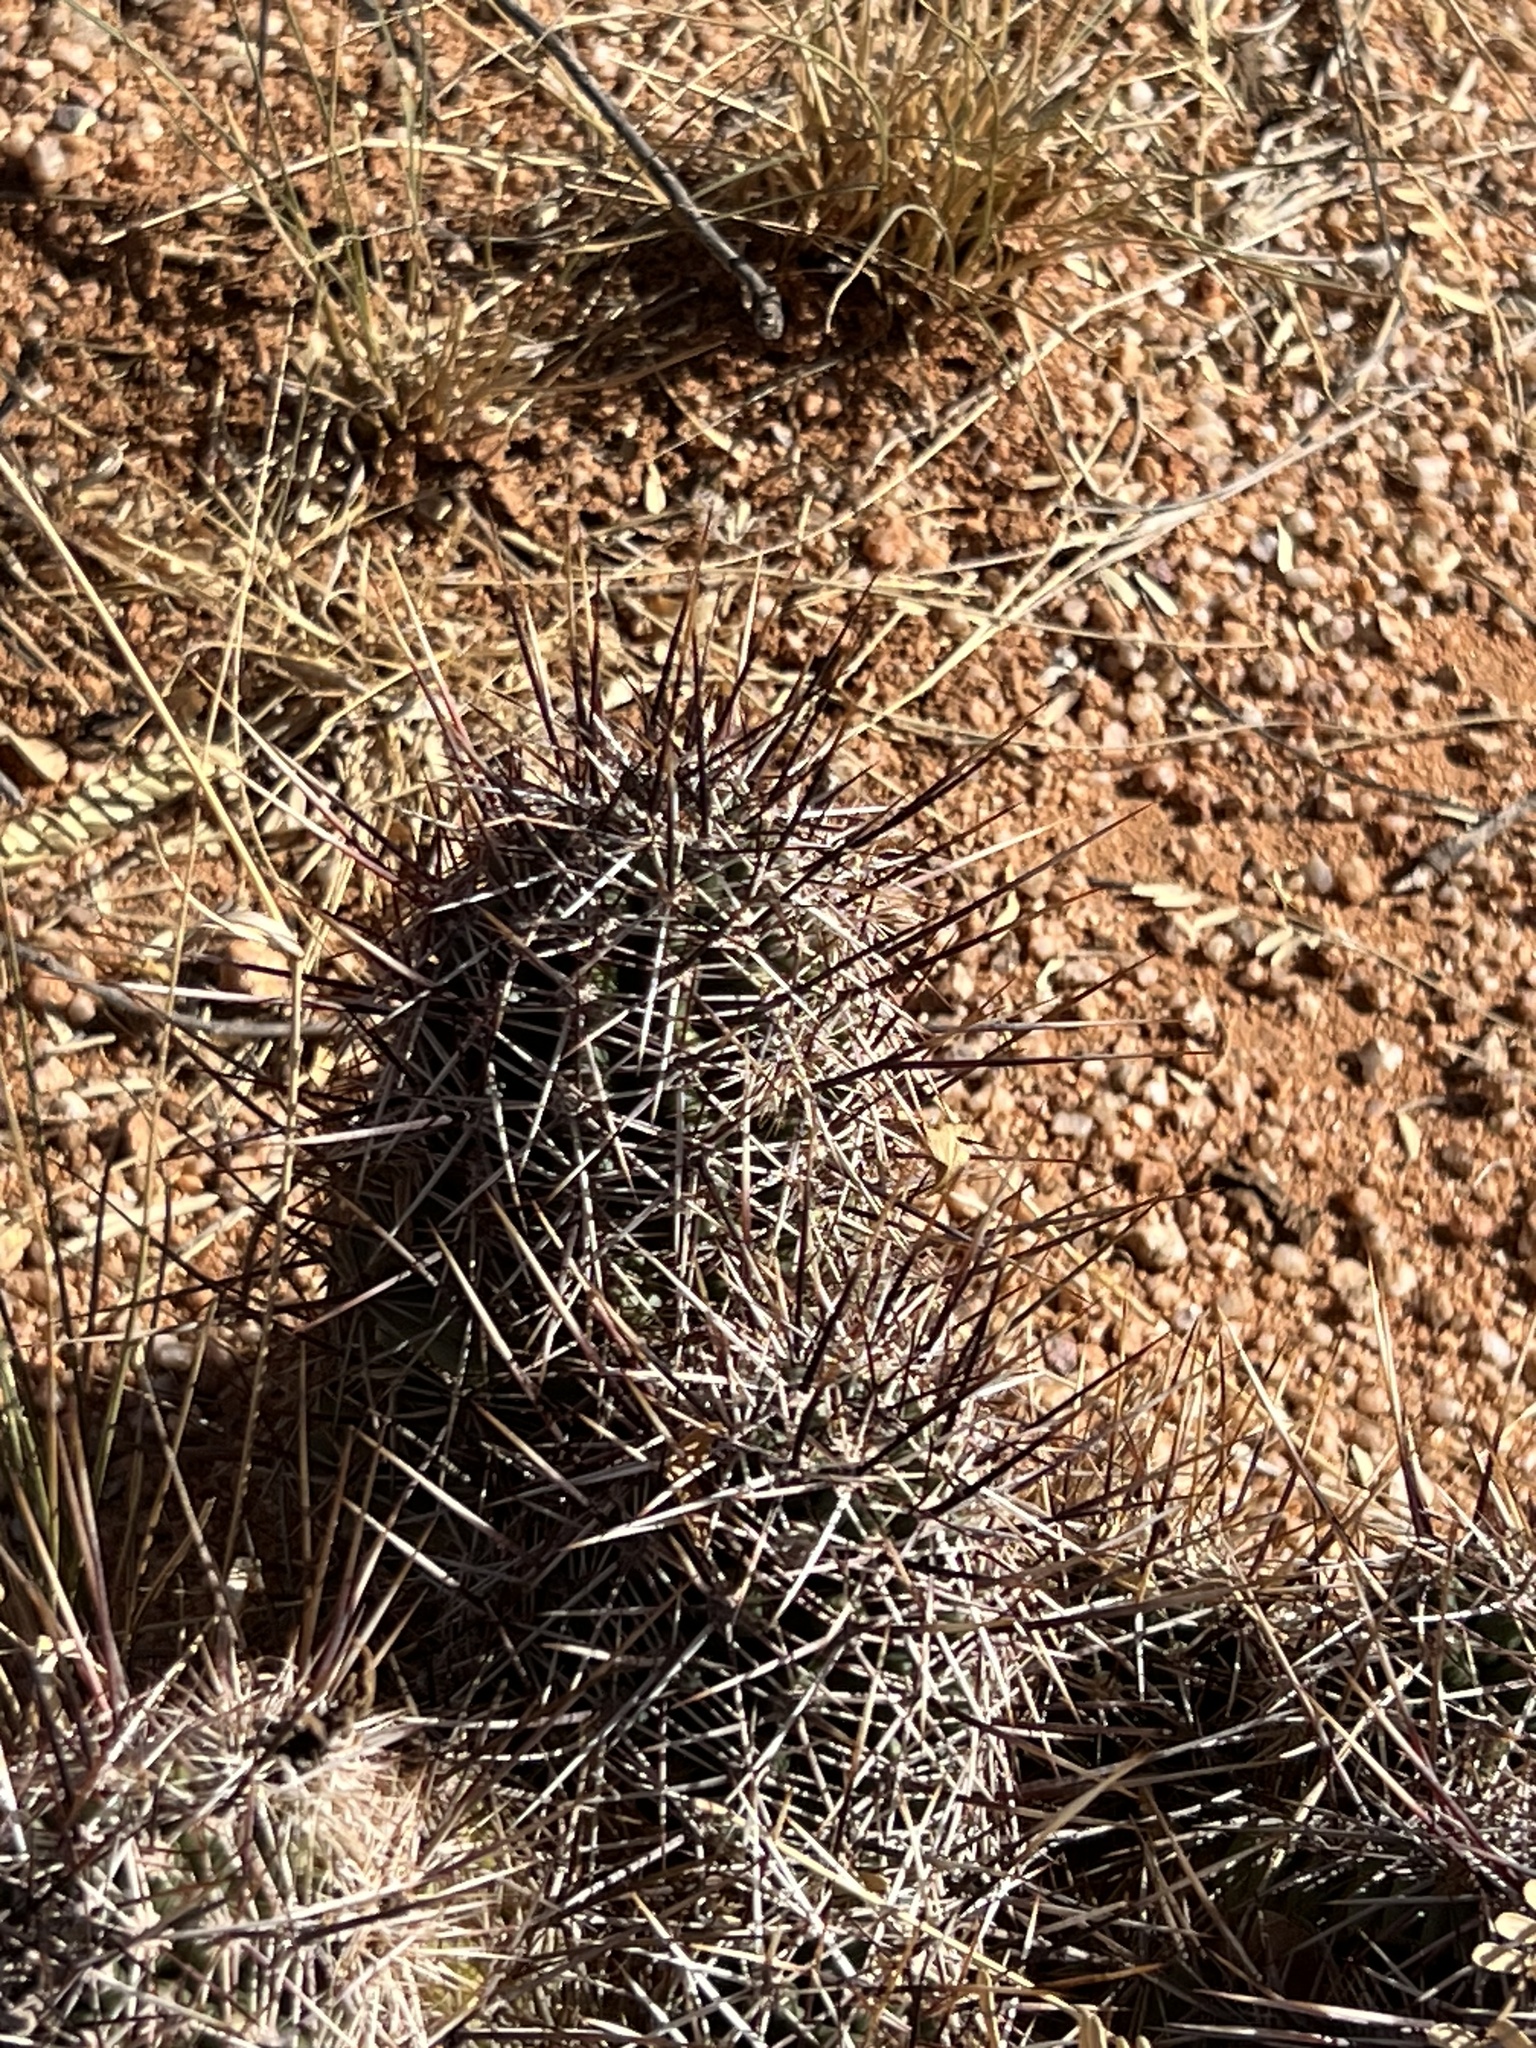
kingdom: Plantae
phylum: Tracheophyta
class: Magnoliopsida
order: Caryophyllales
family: Cactaceae
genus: Echinocereus
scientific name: Echinocereus fasciculatus
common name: Bundle hedgehog
